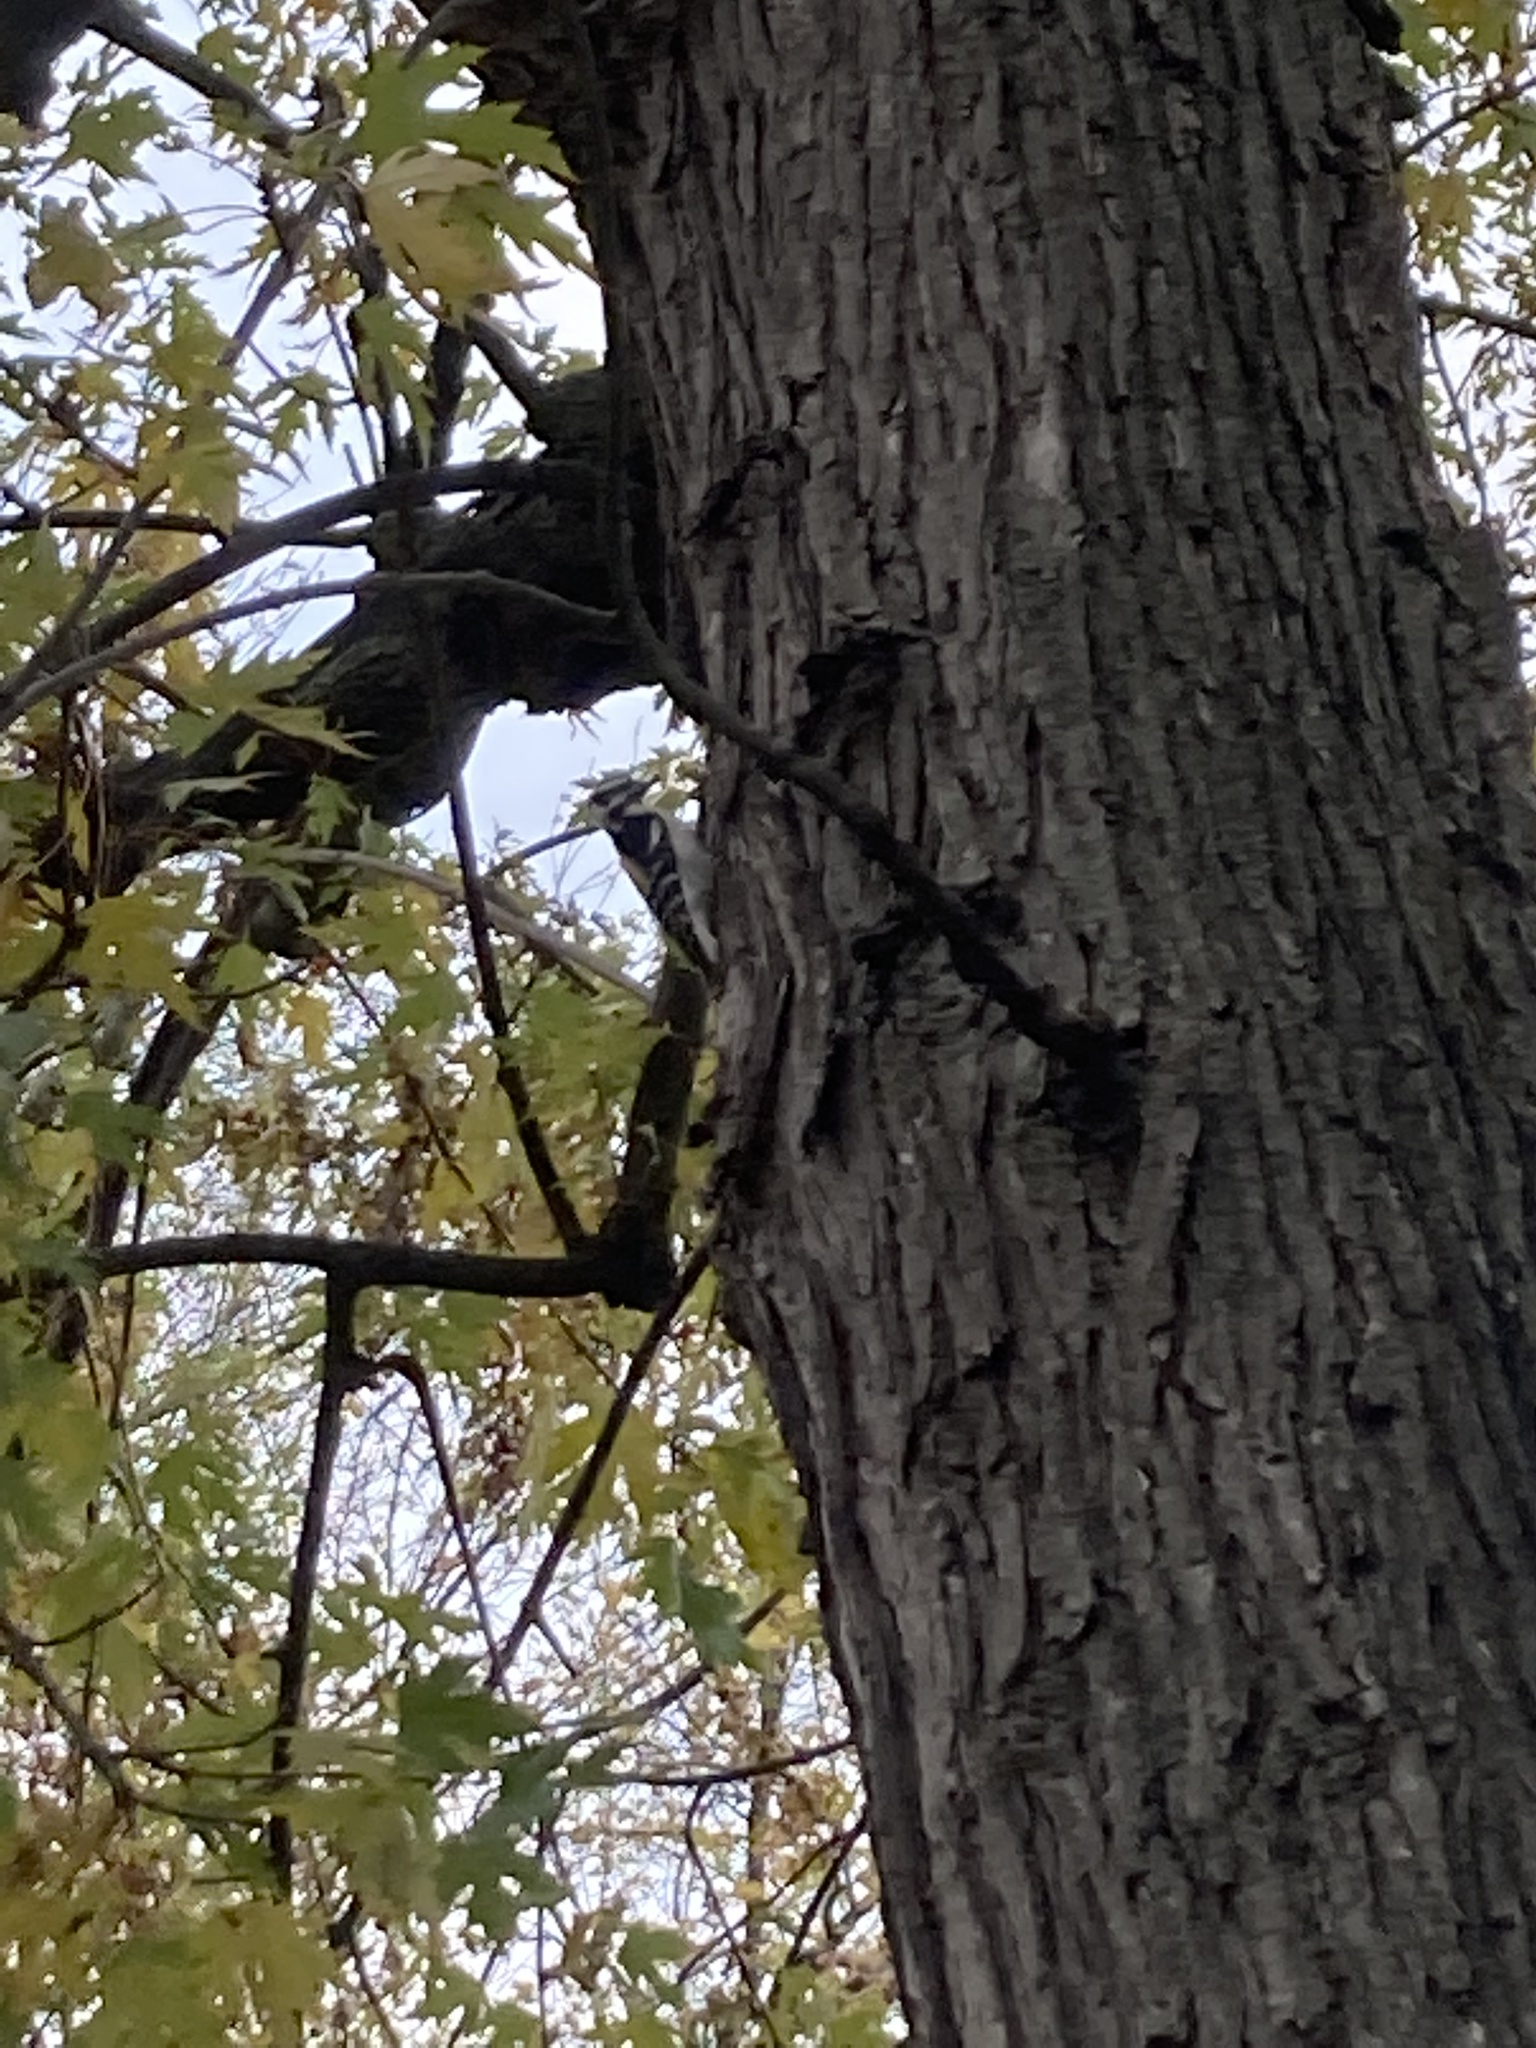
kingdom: Animalia
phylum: Chordata
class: Aves
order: Piciformes
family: Picidae
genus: Dryobates
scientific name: Dryobates pubescens
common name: Downy woodpecker
